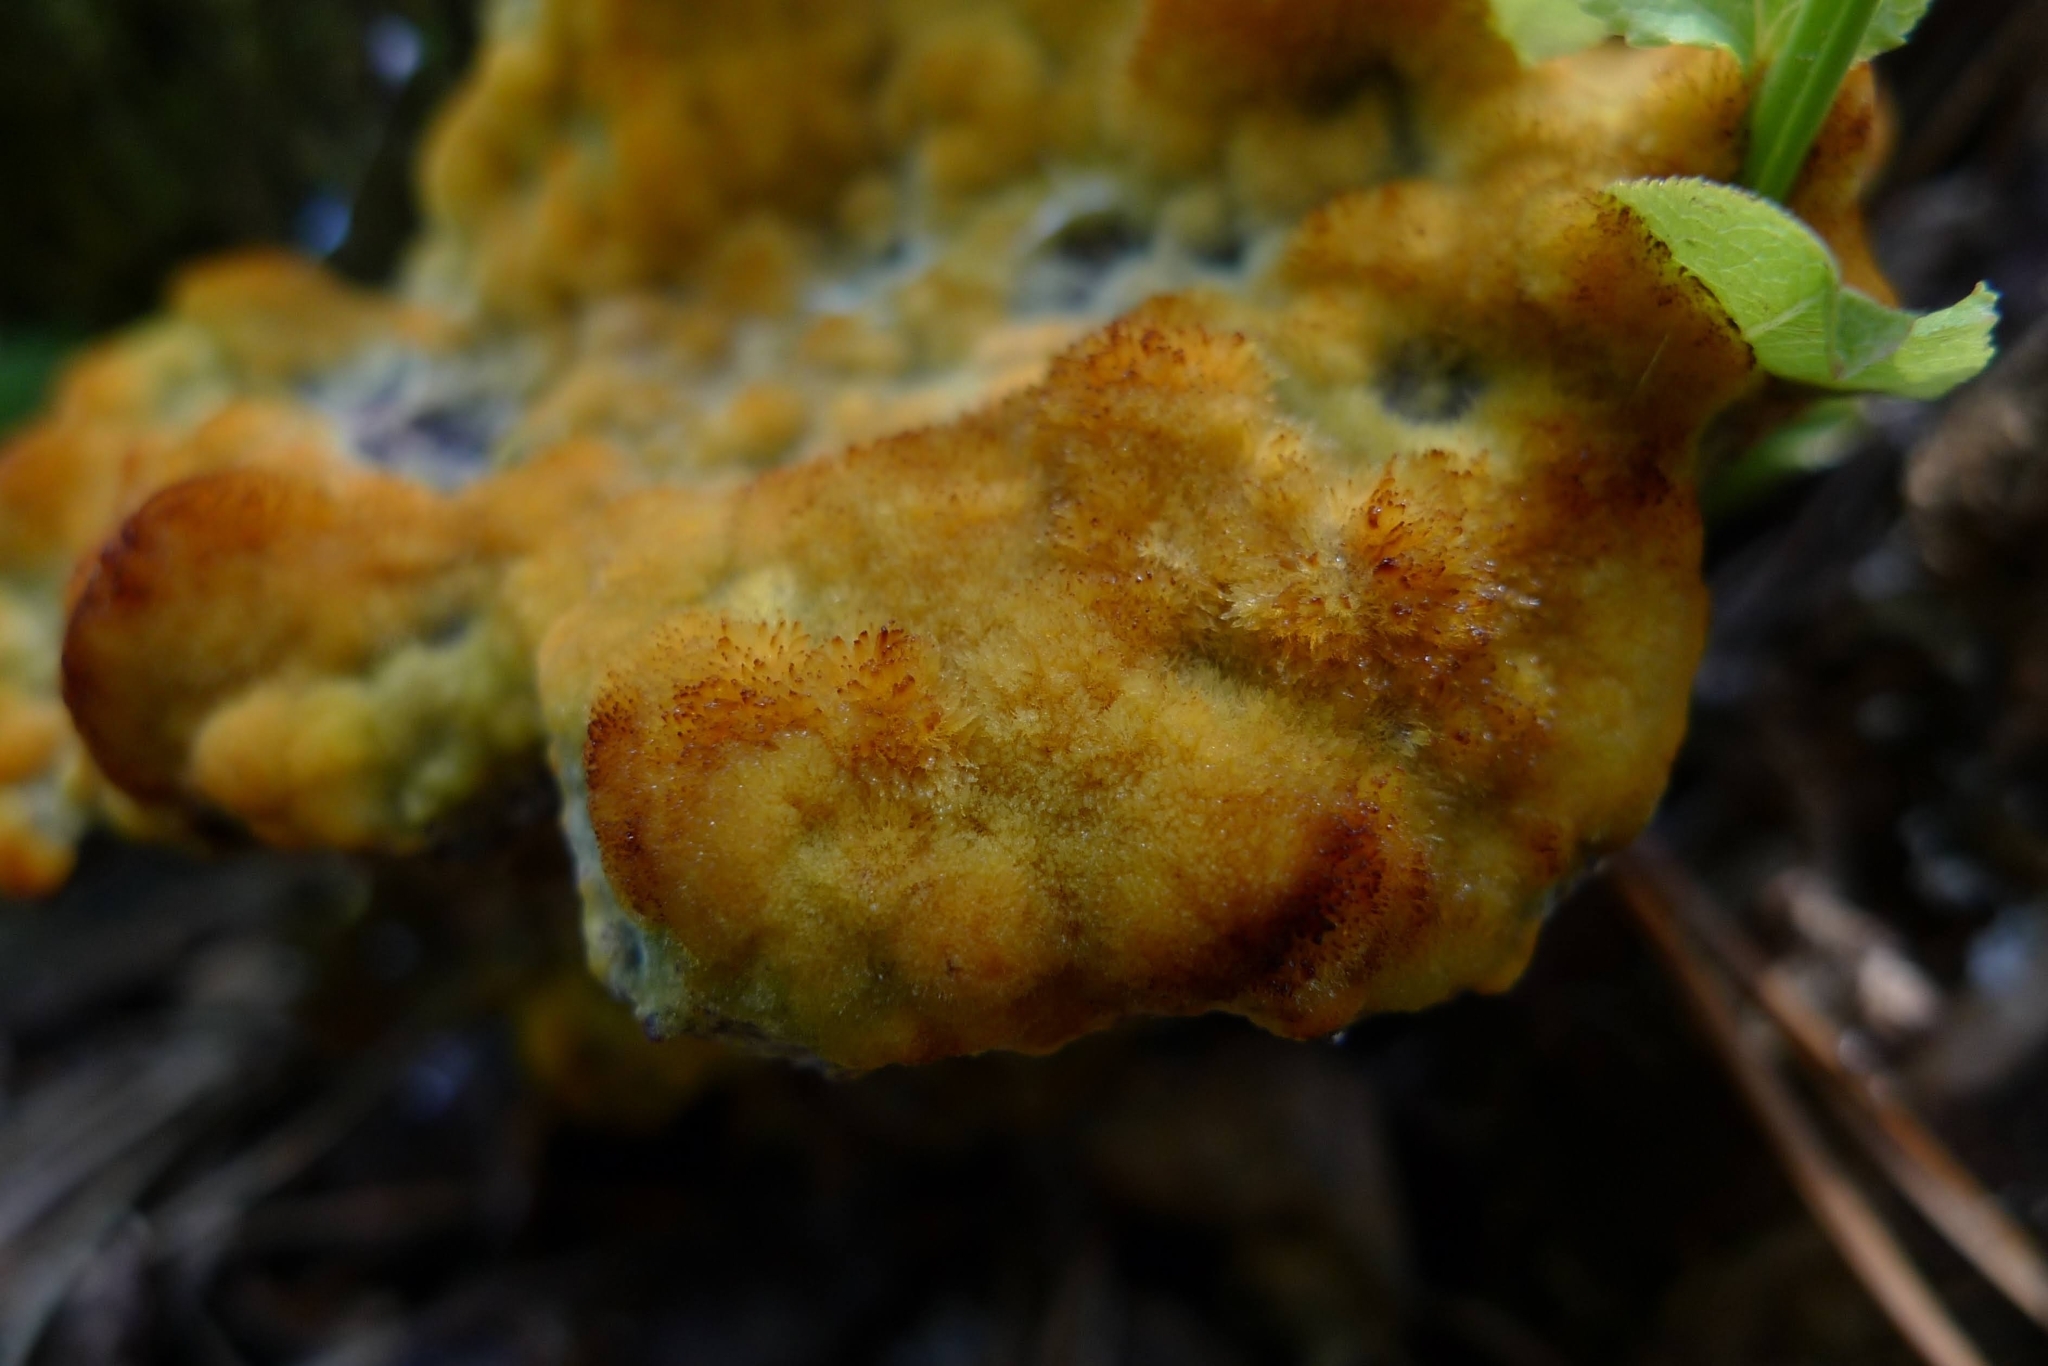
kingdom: Fungi
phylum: Basidiomycota
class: Agaricomycetes
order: Polyporales
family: Laetiporaceae
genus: Phaeolus
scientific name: Phaeolus schweinitzii
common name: Dyer's mazegill
